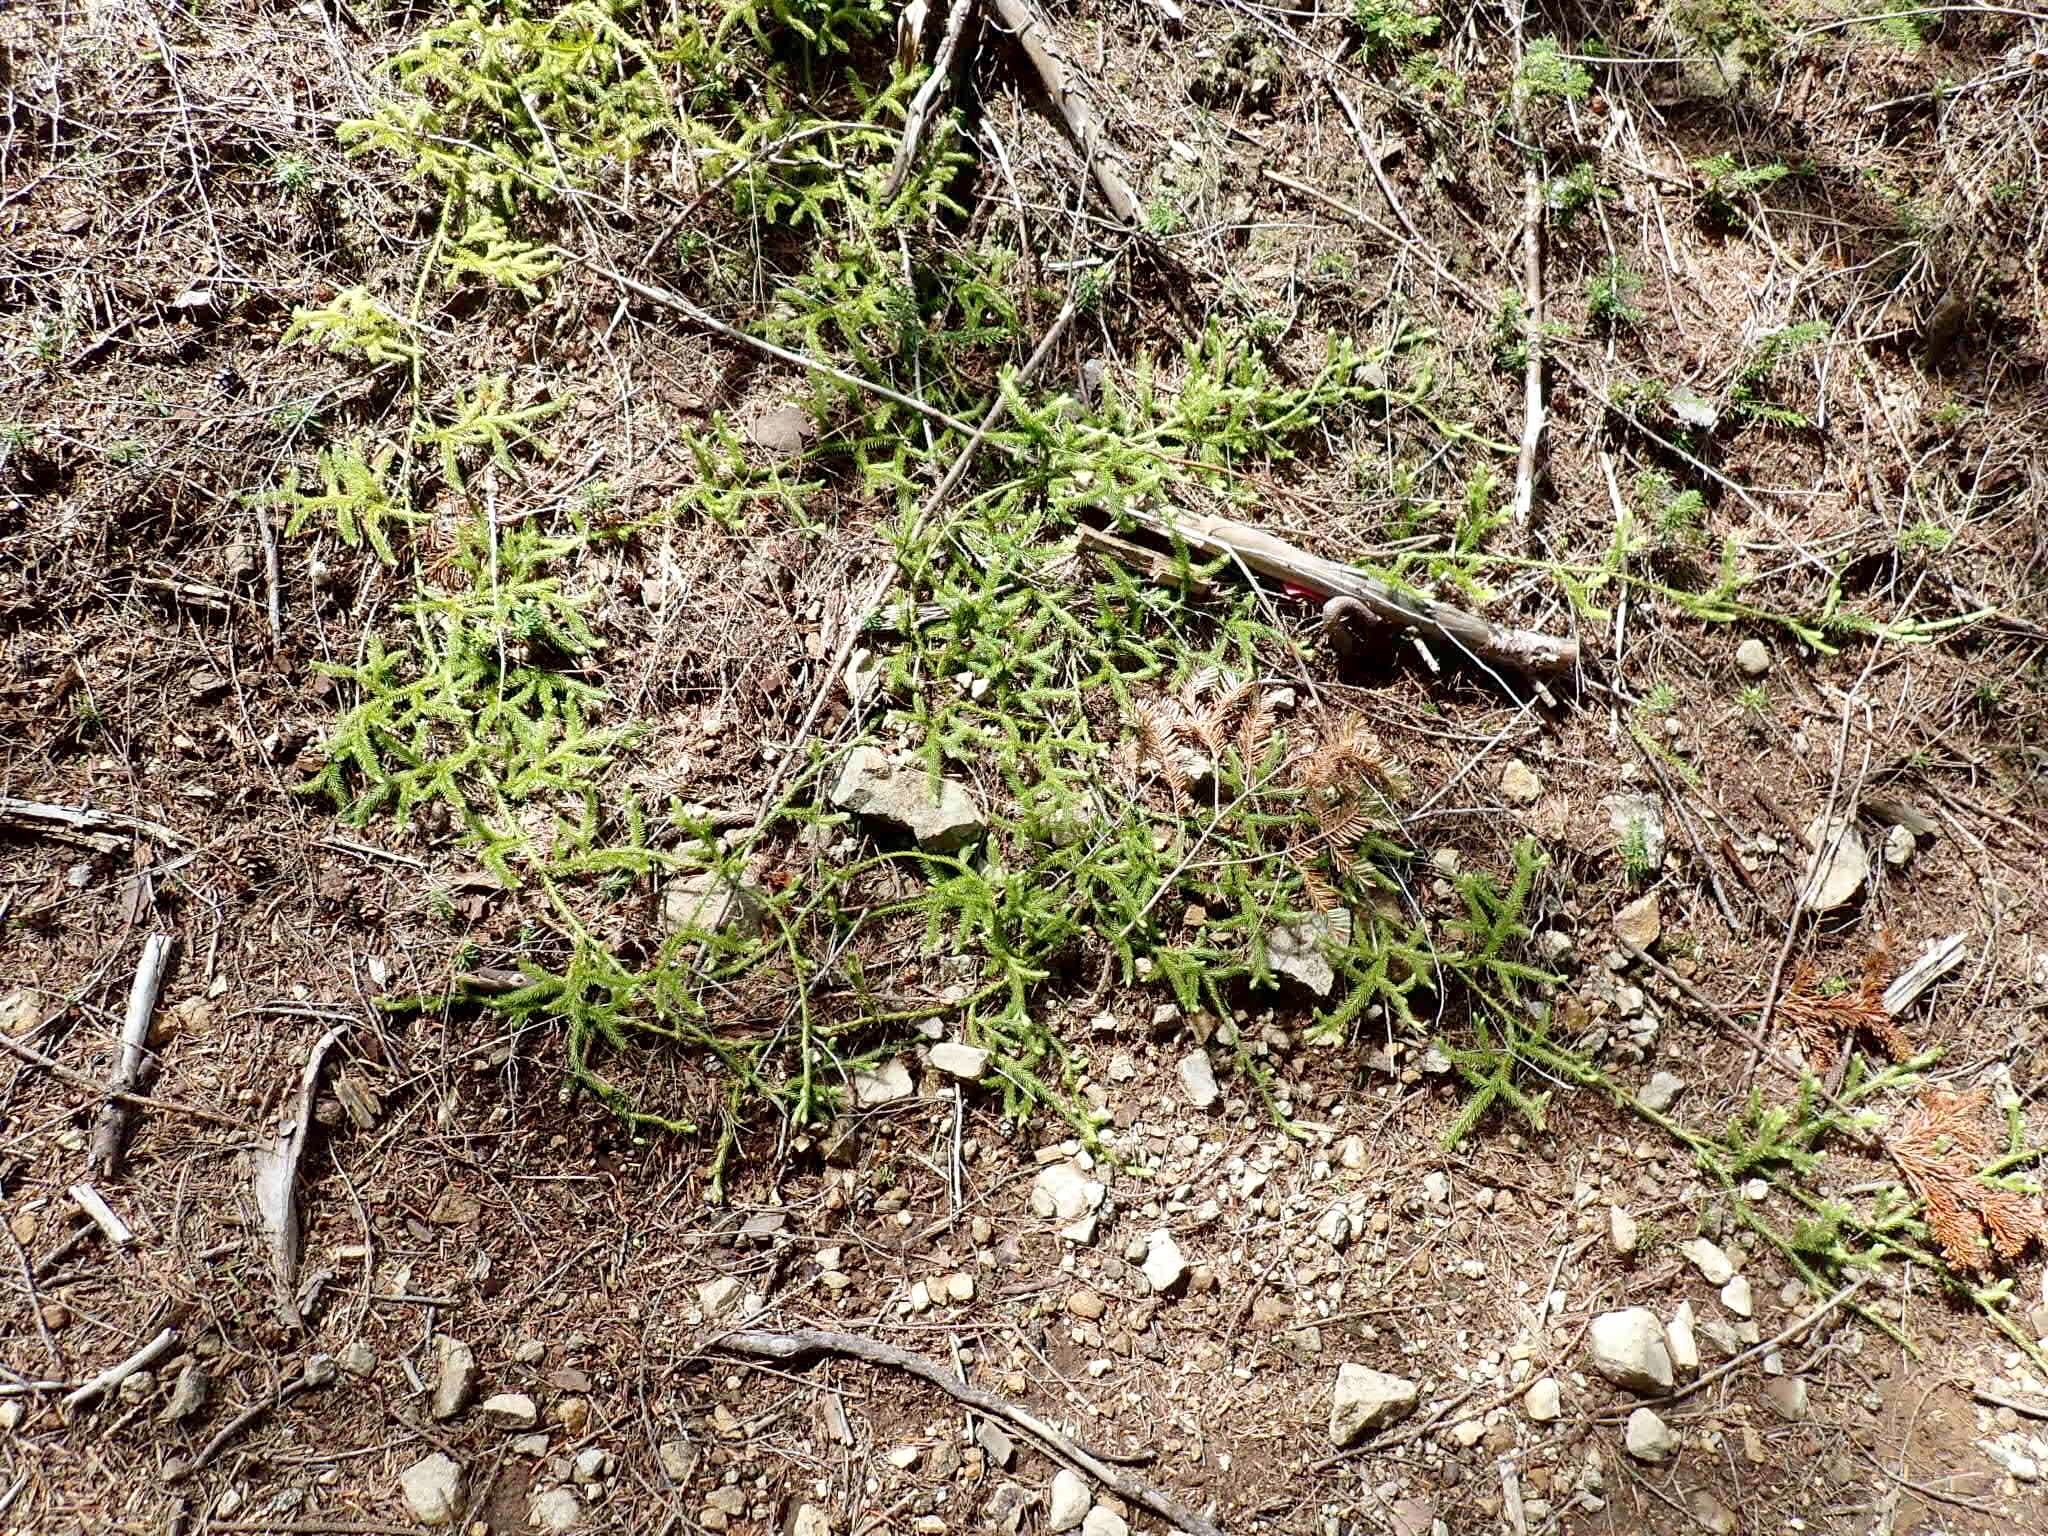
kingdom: Plantae
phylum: Tracheophyta
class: Lycopodiopsida
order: Lycopodiales
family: Lycopodiaceae
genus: Lycopodium
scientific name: Lycopodium clavatum
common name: Stag's-horn clubmoss
